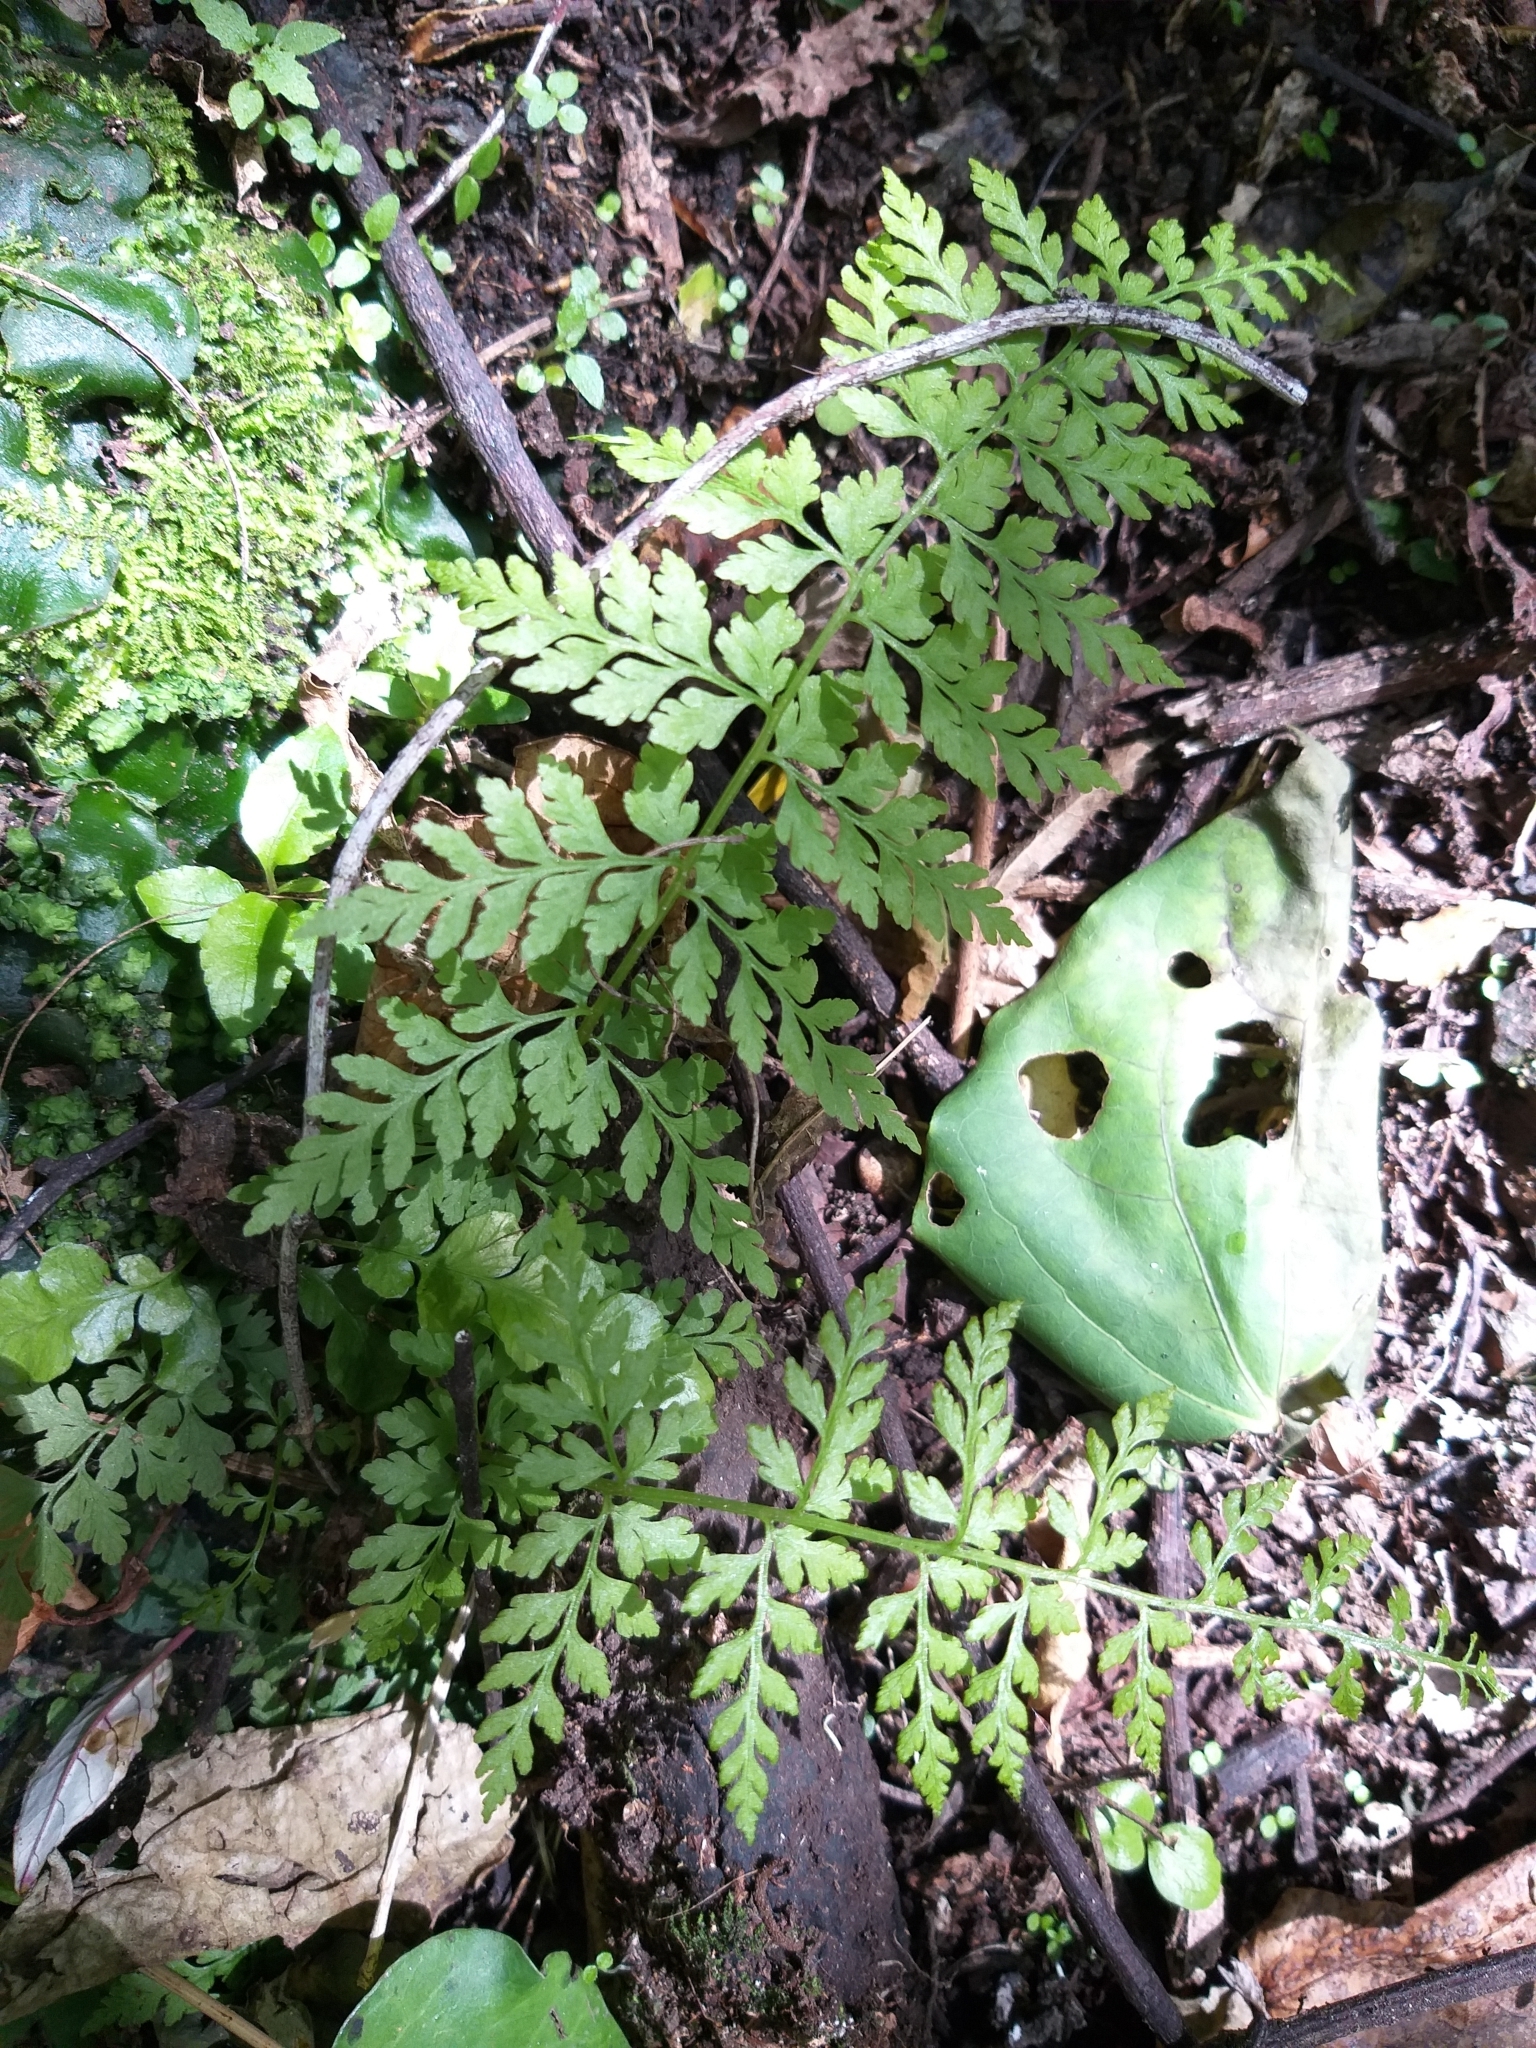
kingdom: Plantae
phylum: Tracheophyta
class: Polypodiopsida
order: Polypodiales
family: Cystopteridaceae
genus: Cystopteris
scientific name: Cystopteris fragilis
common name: Brittle bladder fern
